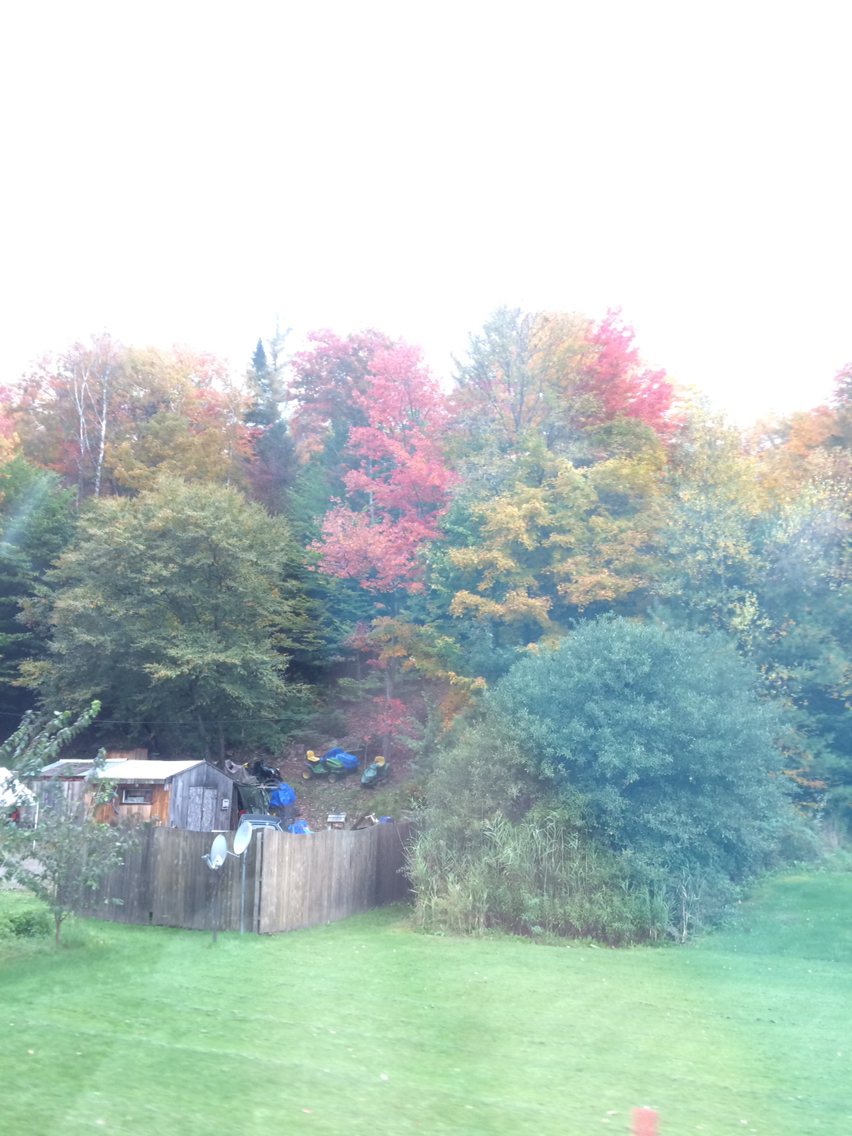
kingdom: Plantae
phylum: Tracheophyta
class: Magnoliopsida
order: Sapindales
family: Sapindaceae
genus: Acer
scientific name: Acer rubrum
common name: Red maple
